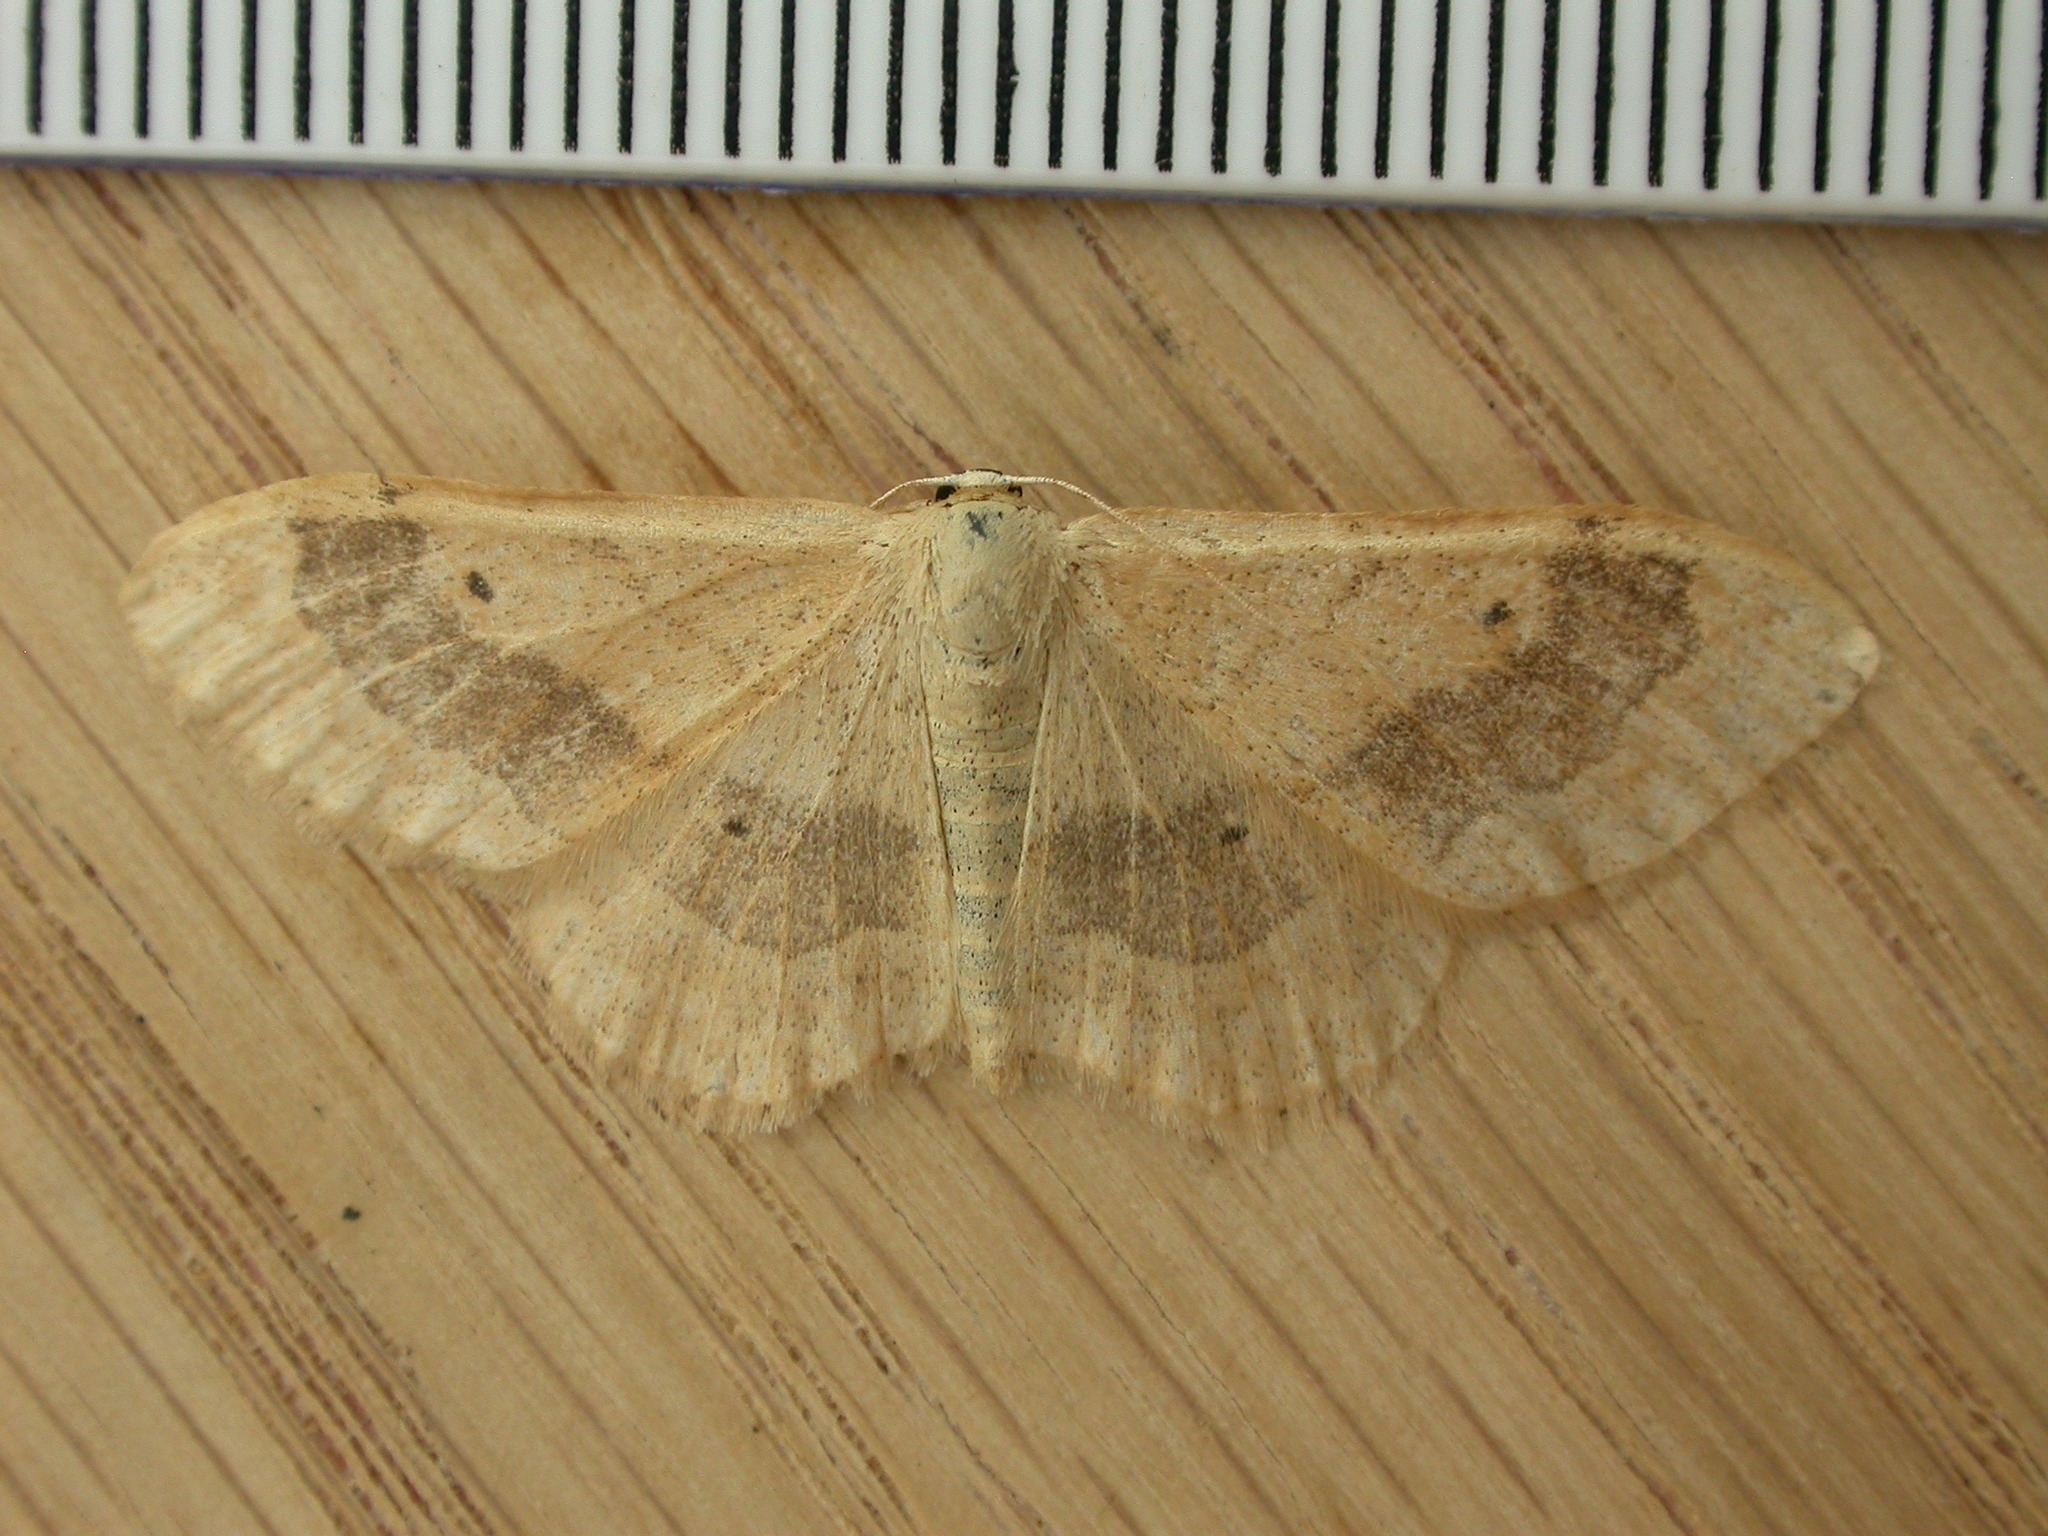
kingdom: Animalia
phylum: Arthropoda
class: Insecta
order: Lepidoptera
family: Geometridae
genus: Idaea
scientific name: Idaea aversata
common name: Riband wave
